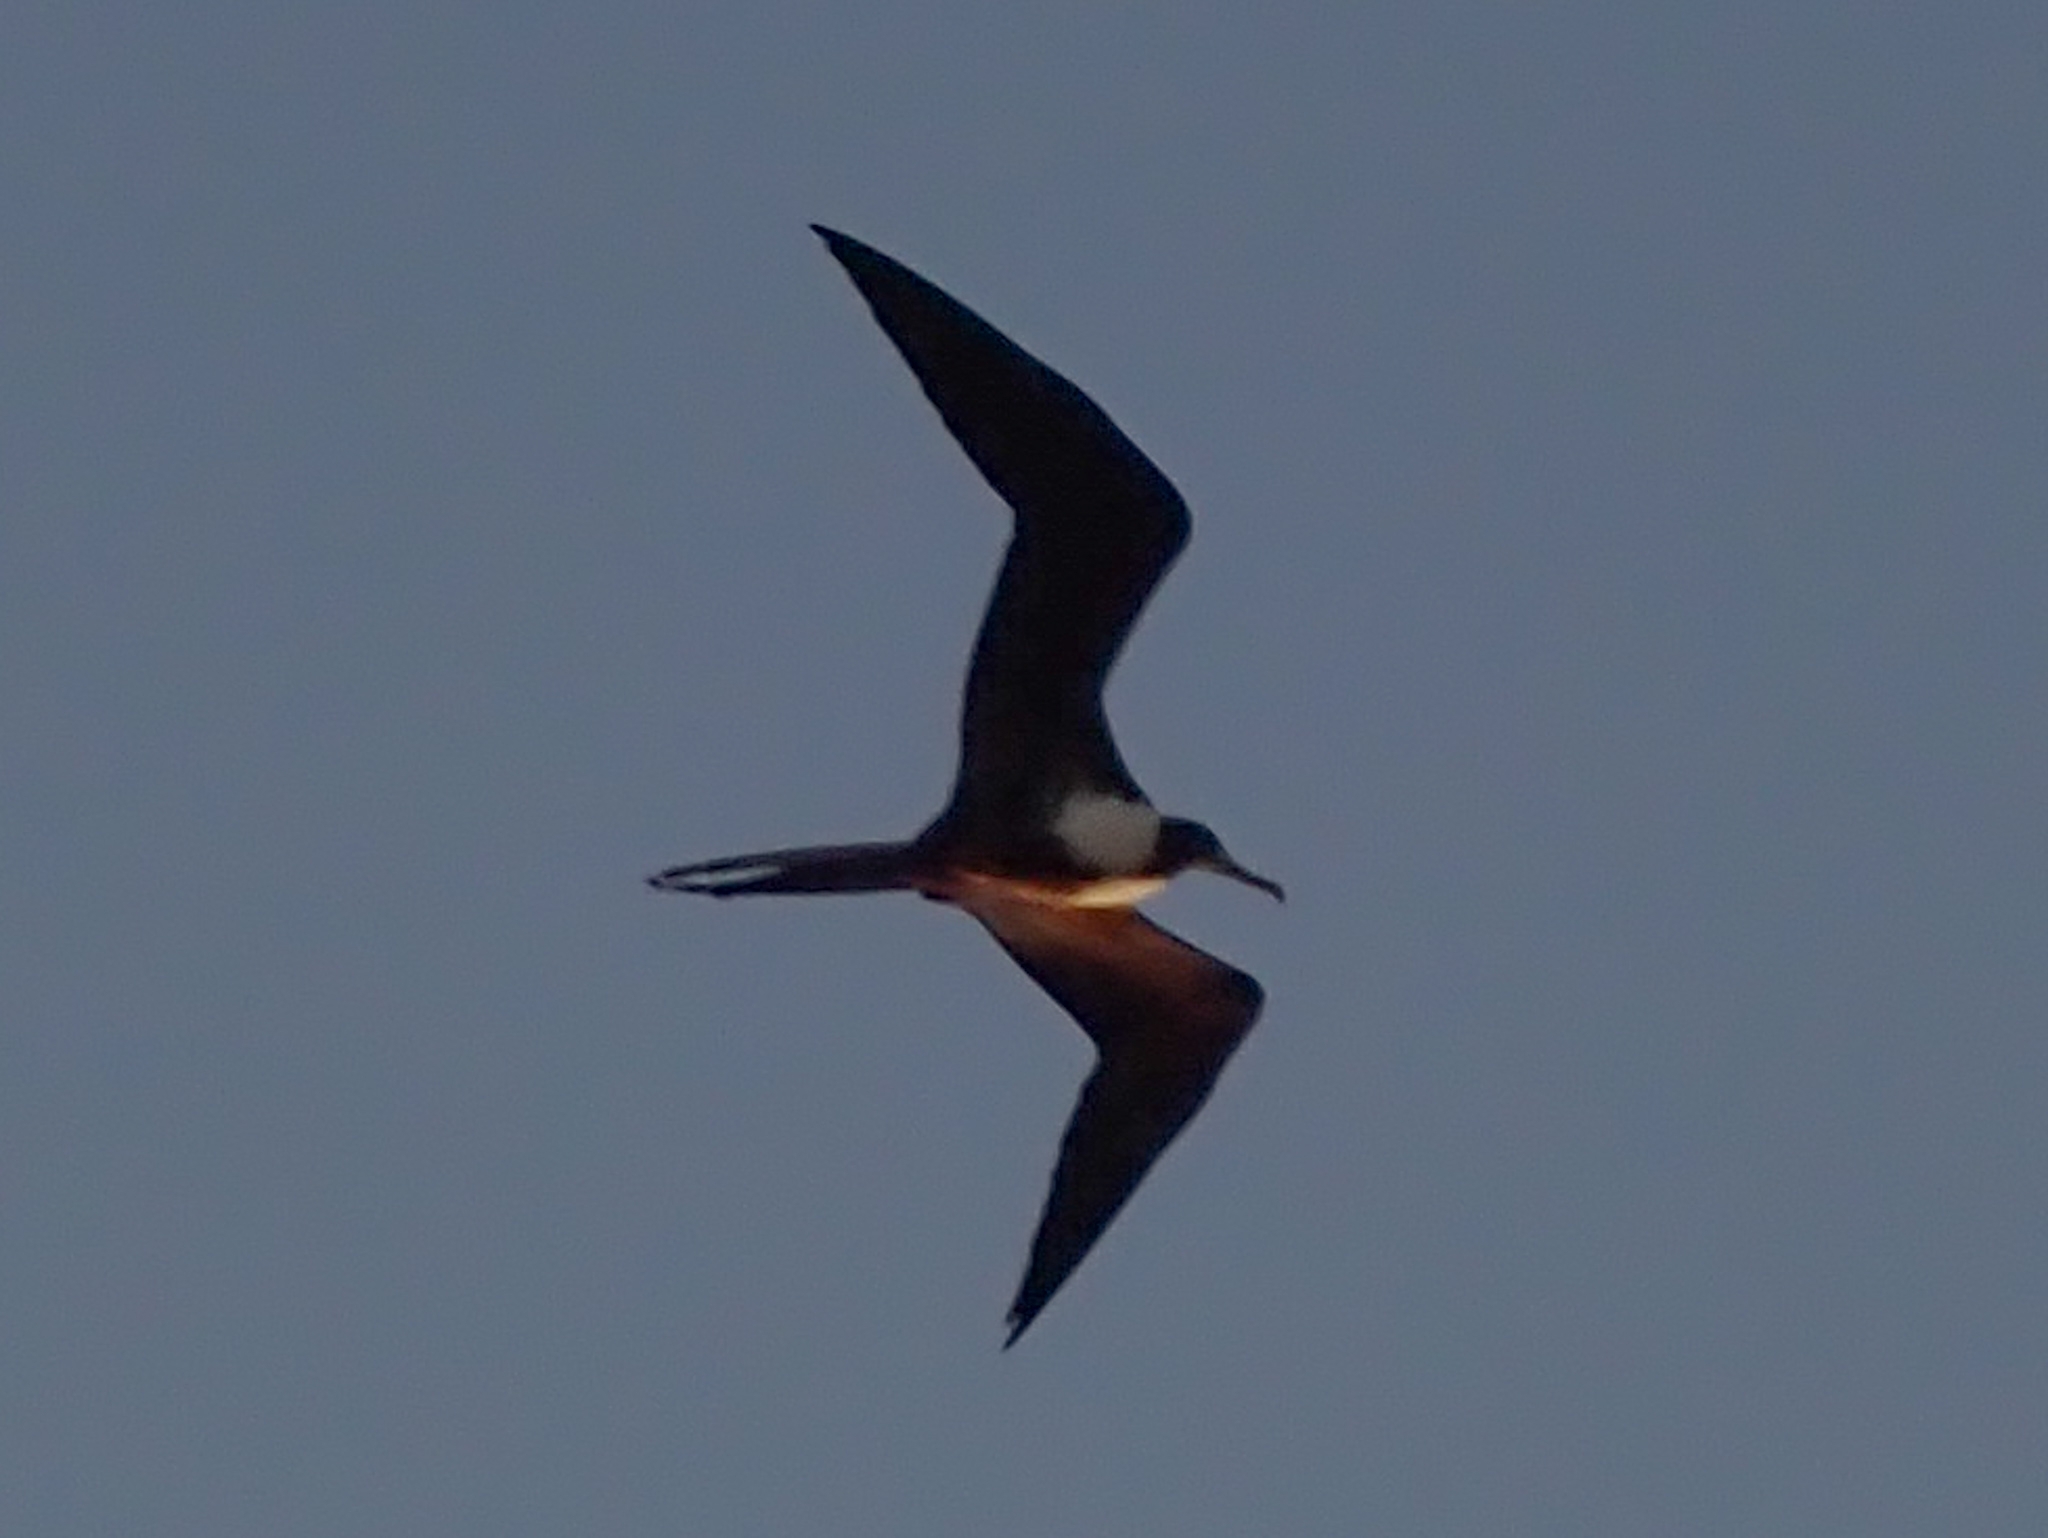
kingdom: Animalia
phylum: Chordata
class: Aves
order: Suliformes
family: Fregatidae
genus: Fregata
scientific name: Fregata magnificens
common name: Magnificent frigatebird
